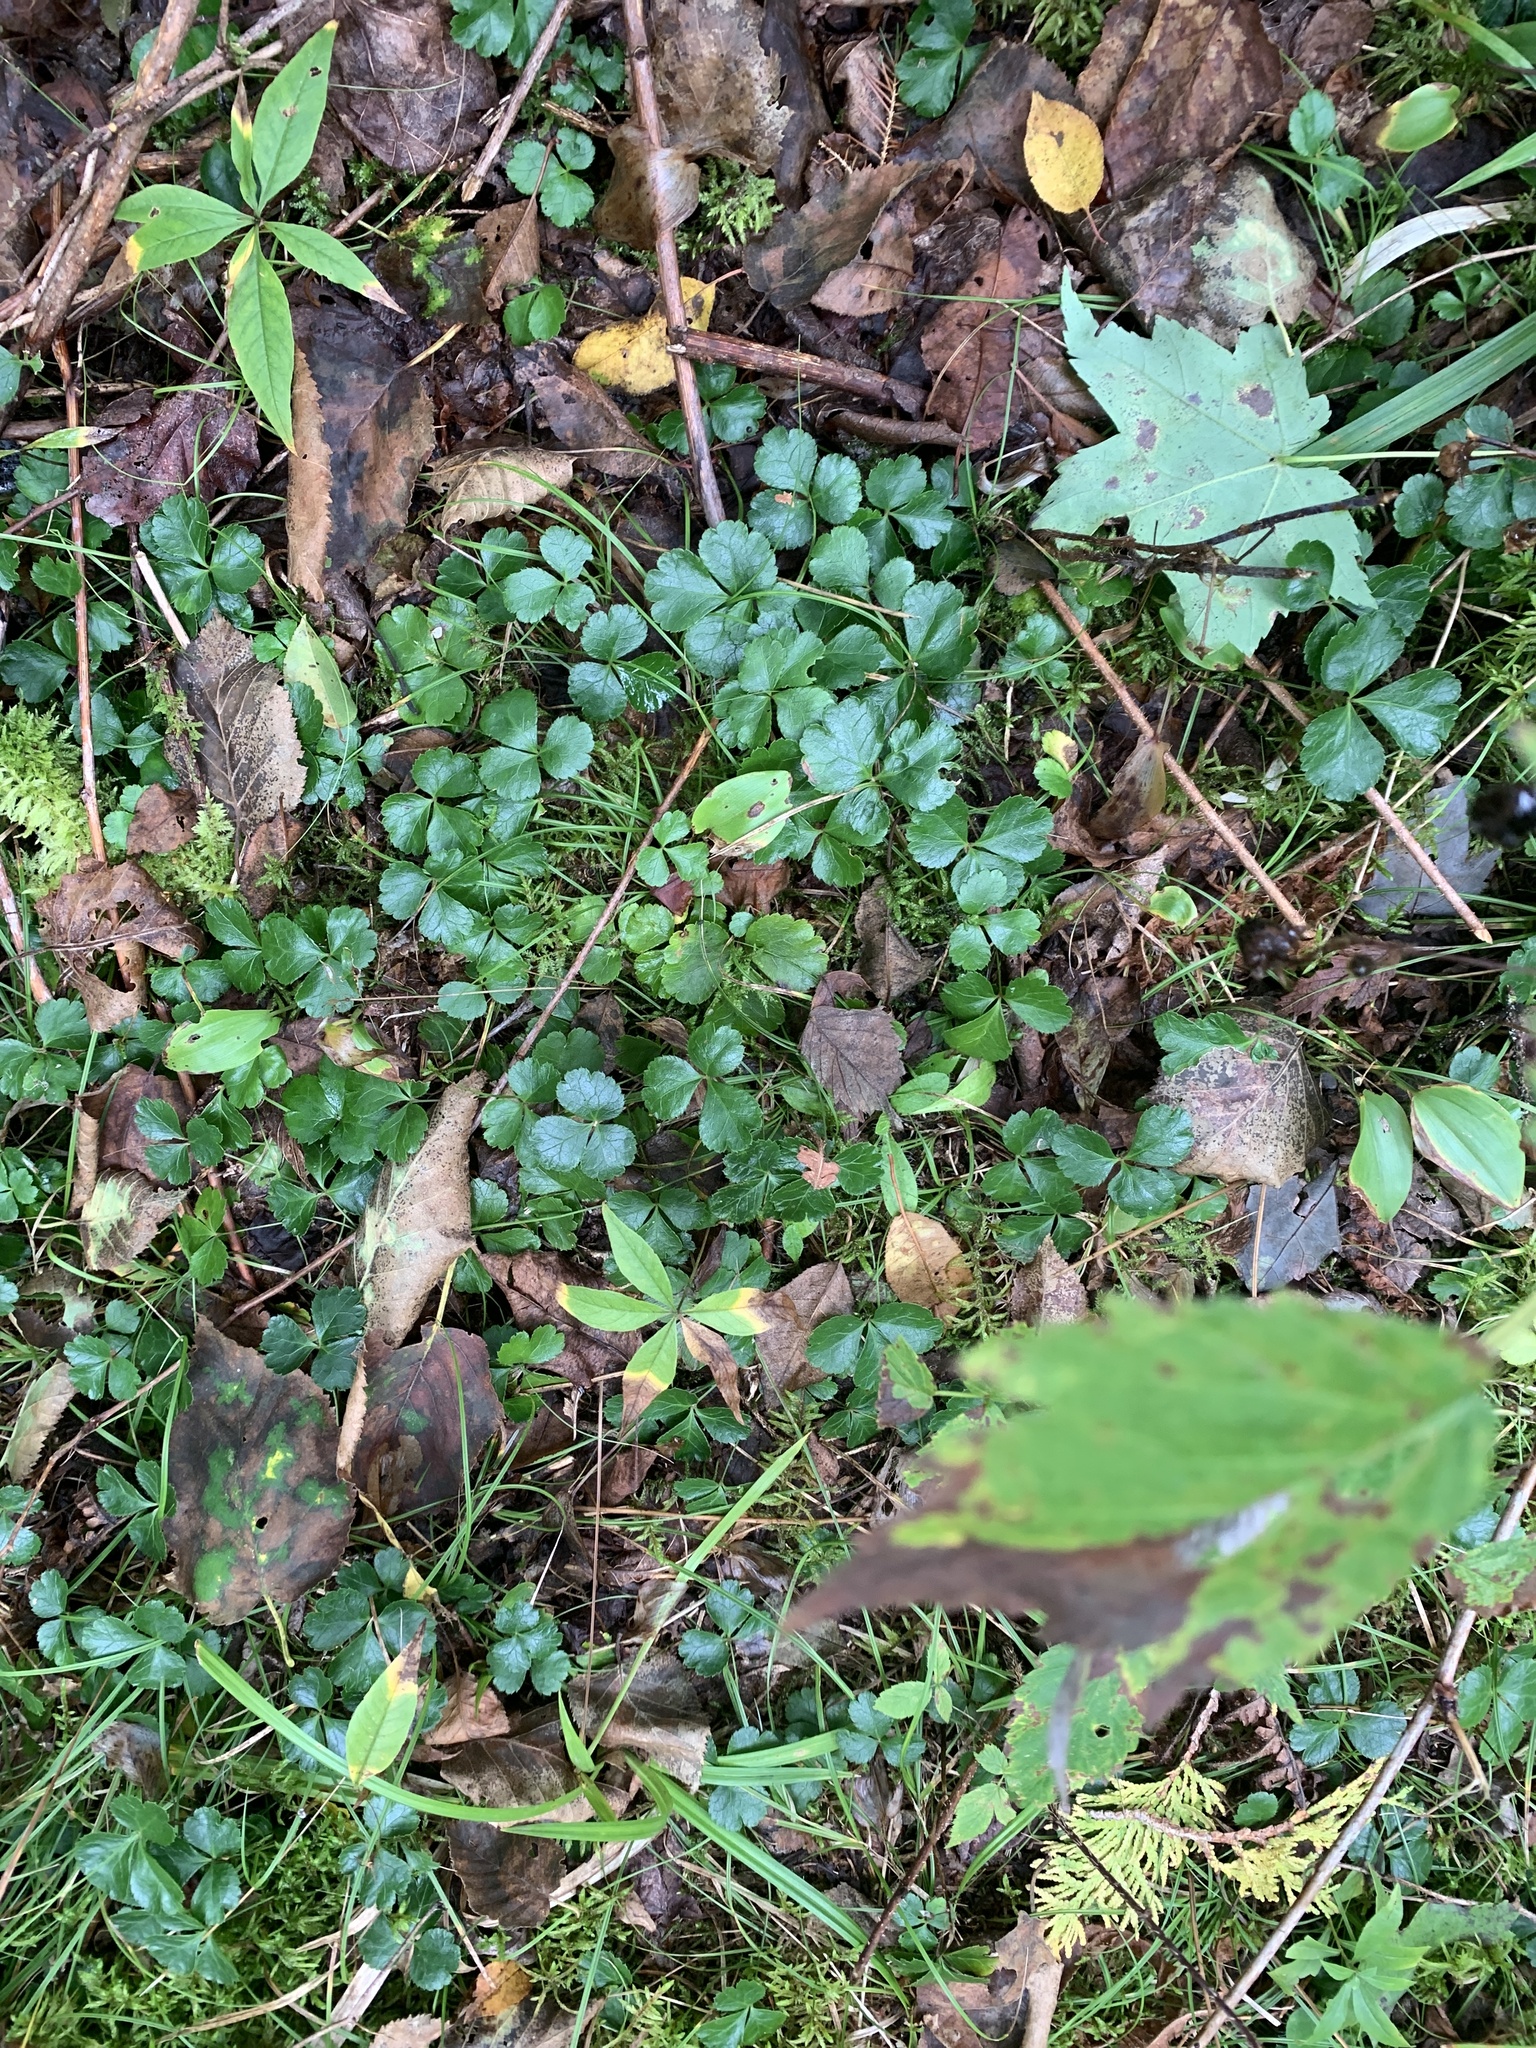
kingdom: Plantae
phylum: Tracheophyta
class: Magnoliopsida
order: Ranunculales
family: Ranunculaceae
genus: Coptis
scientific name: Coptis trifolia
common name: Canker-root
